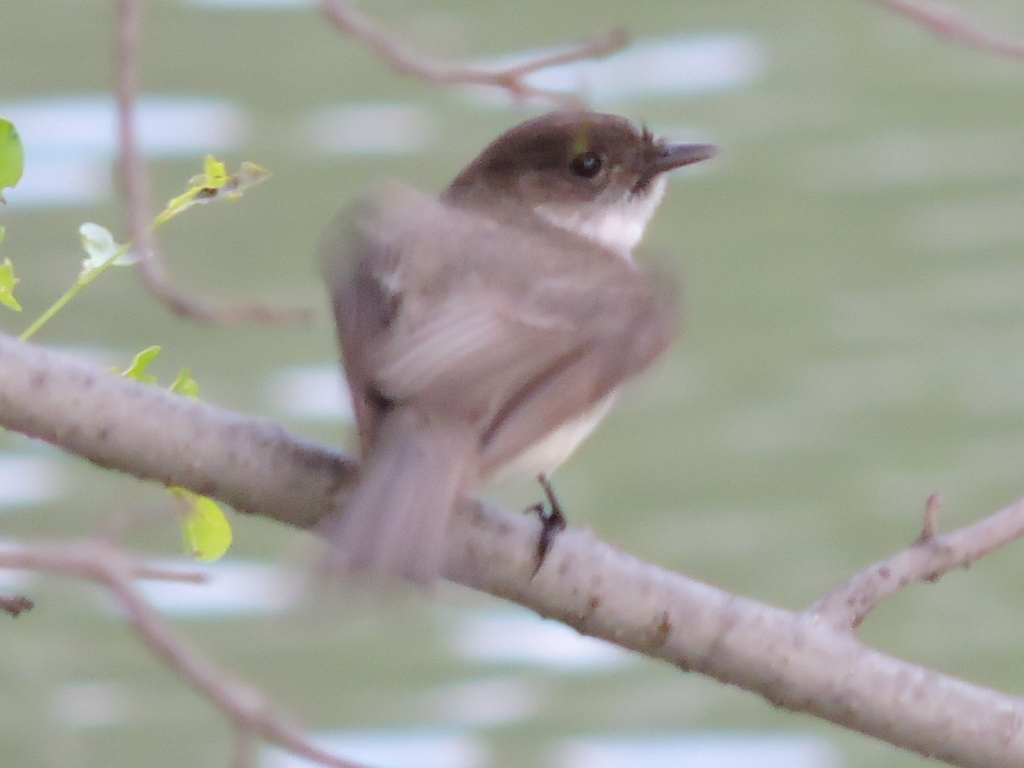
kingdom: Animalia
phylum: Chordata
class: Aves
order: Passeriformes
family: Tyrannidae
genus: Sayornis
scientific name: Sayornis phoebe
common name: Eastern phoebe
